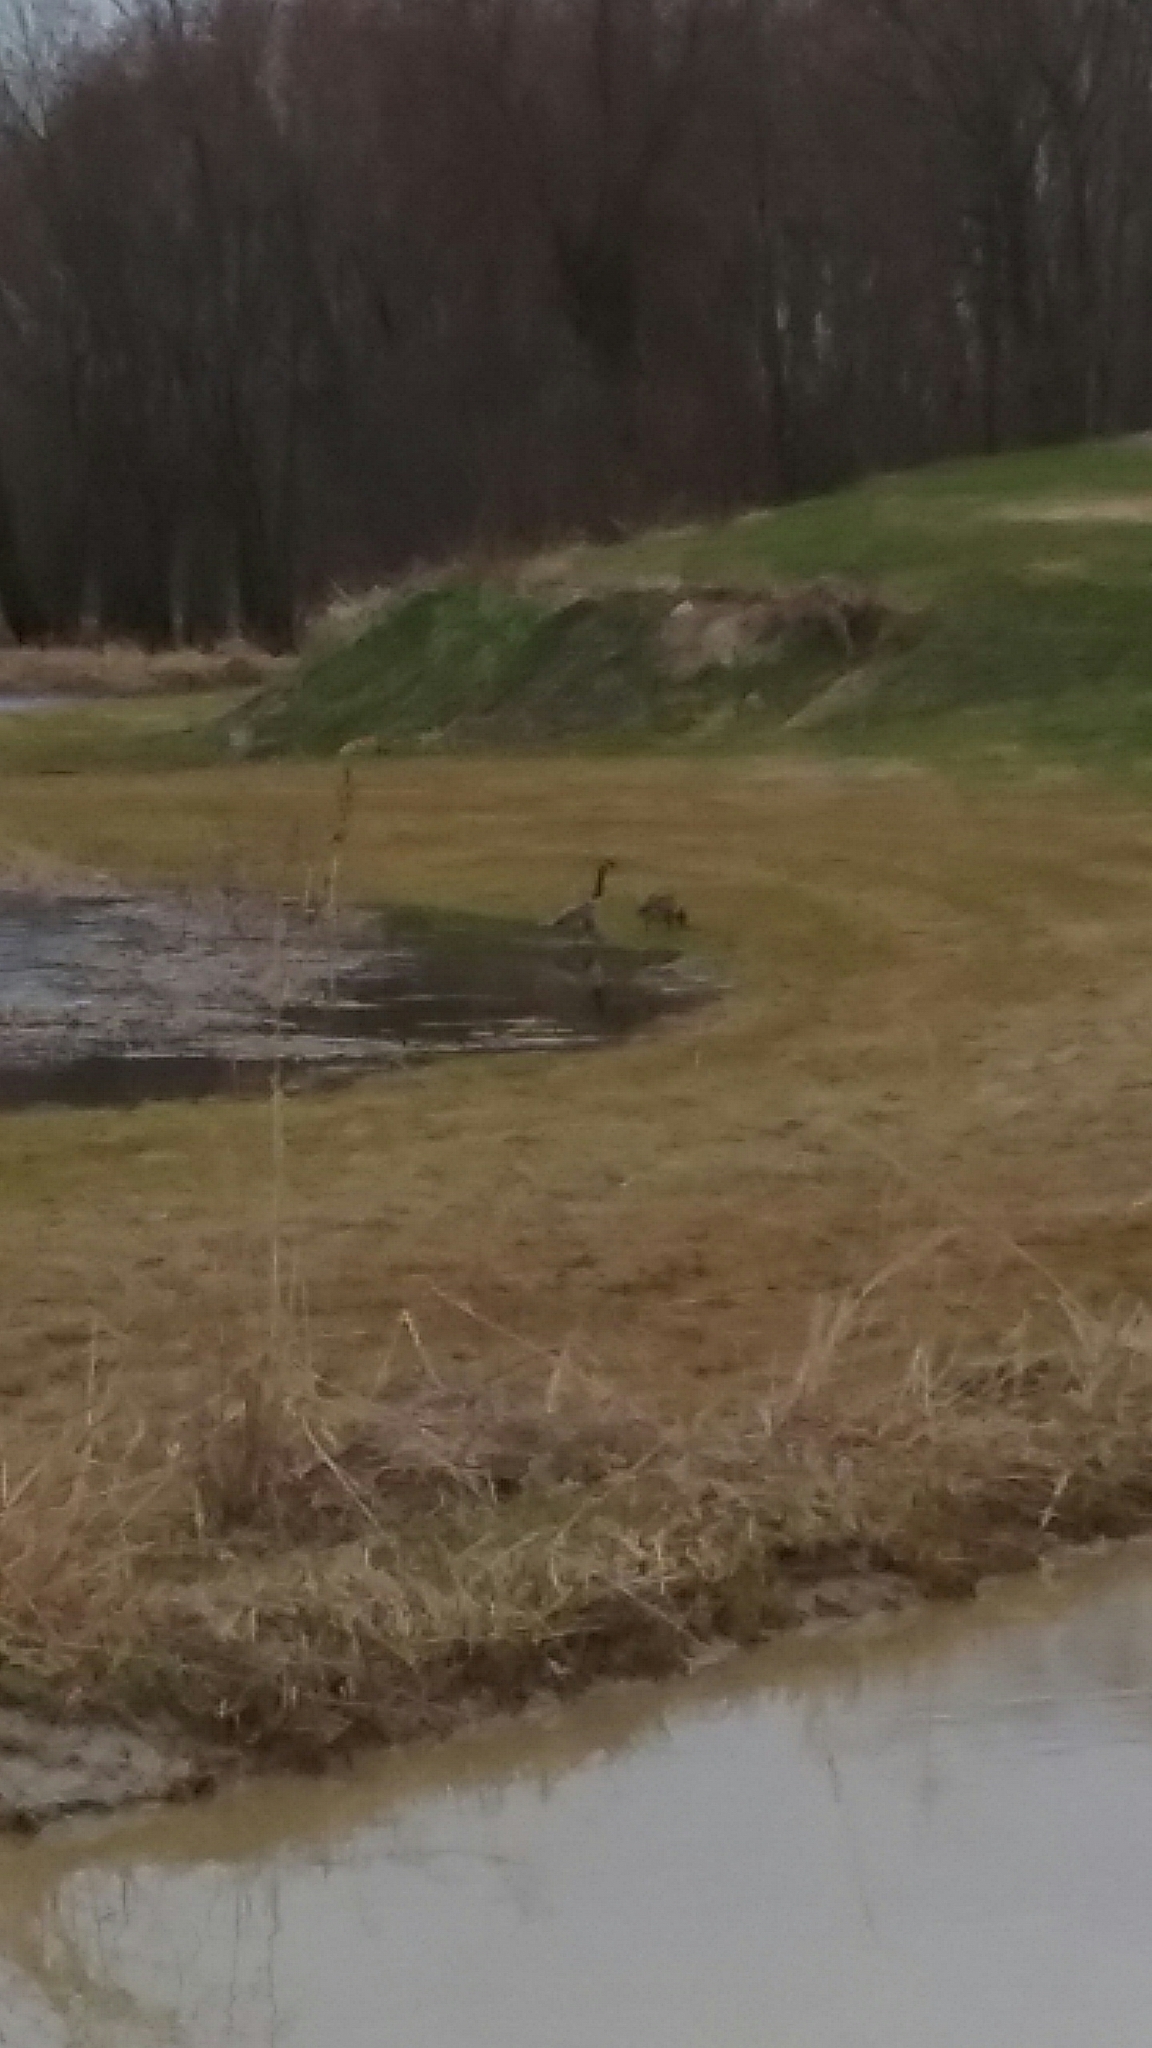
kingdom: Animalia
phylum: Chordata
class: Aves
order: Anseriformes
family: Anatidae
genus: Branta
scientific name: Branta canadensis
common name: Canada goose
